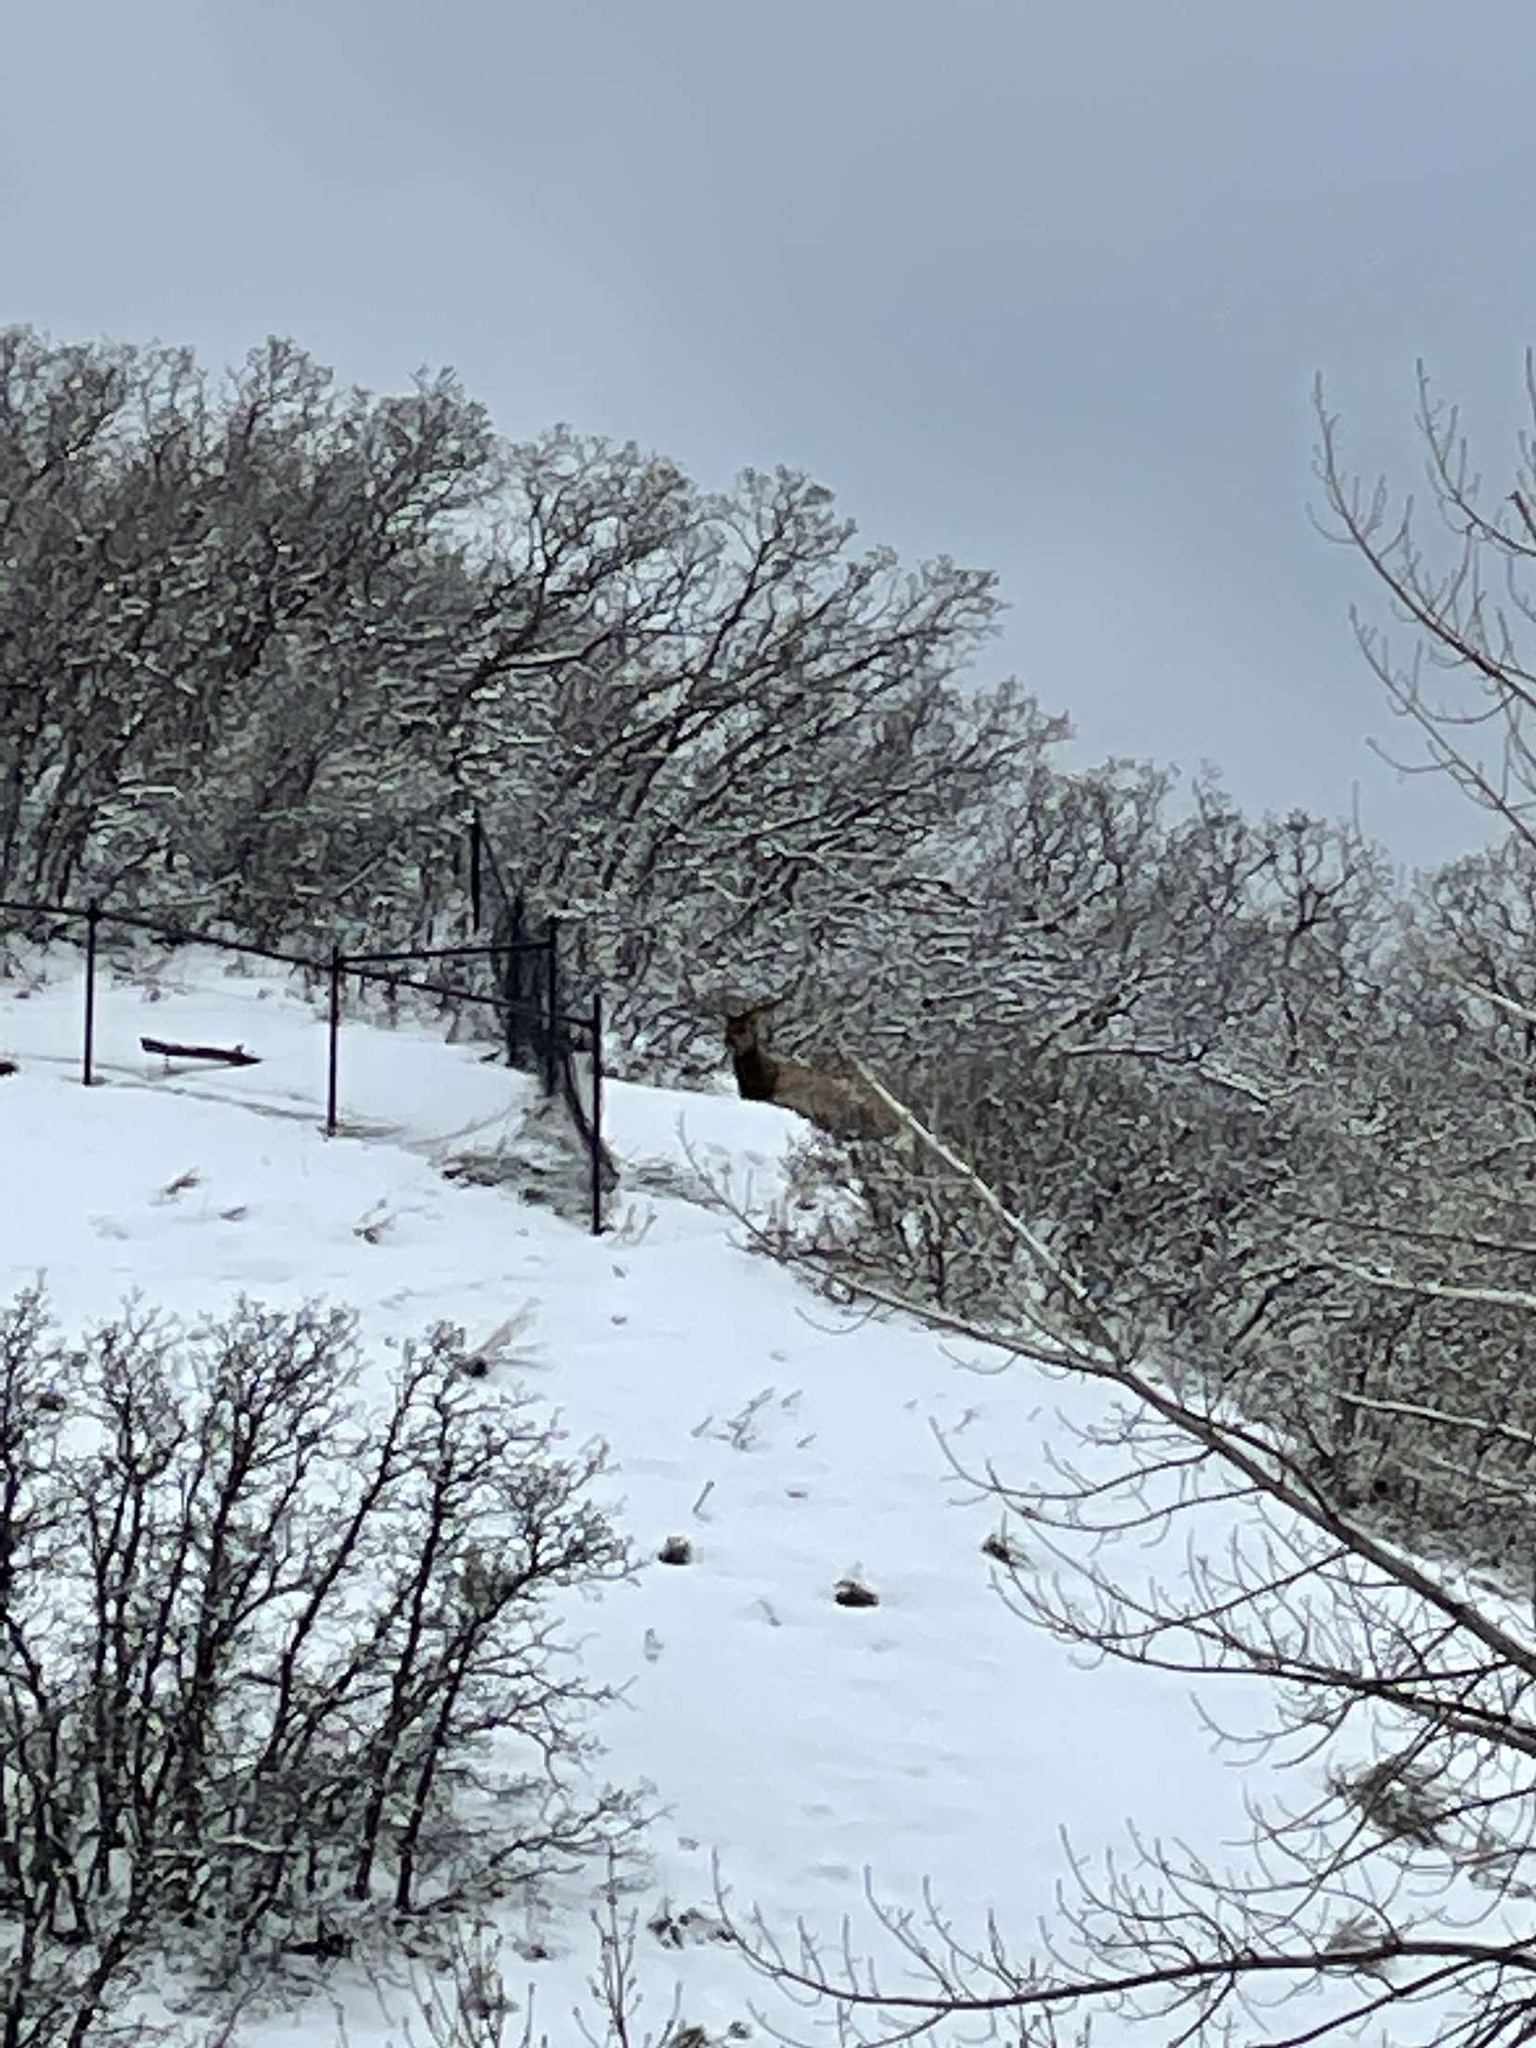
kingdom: Animalia
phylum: Chordata
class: Mammalia
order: Artiodactyla
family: Cervidae
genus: Cervus
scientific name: Cervus elaphus
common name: Red deer
